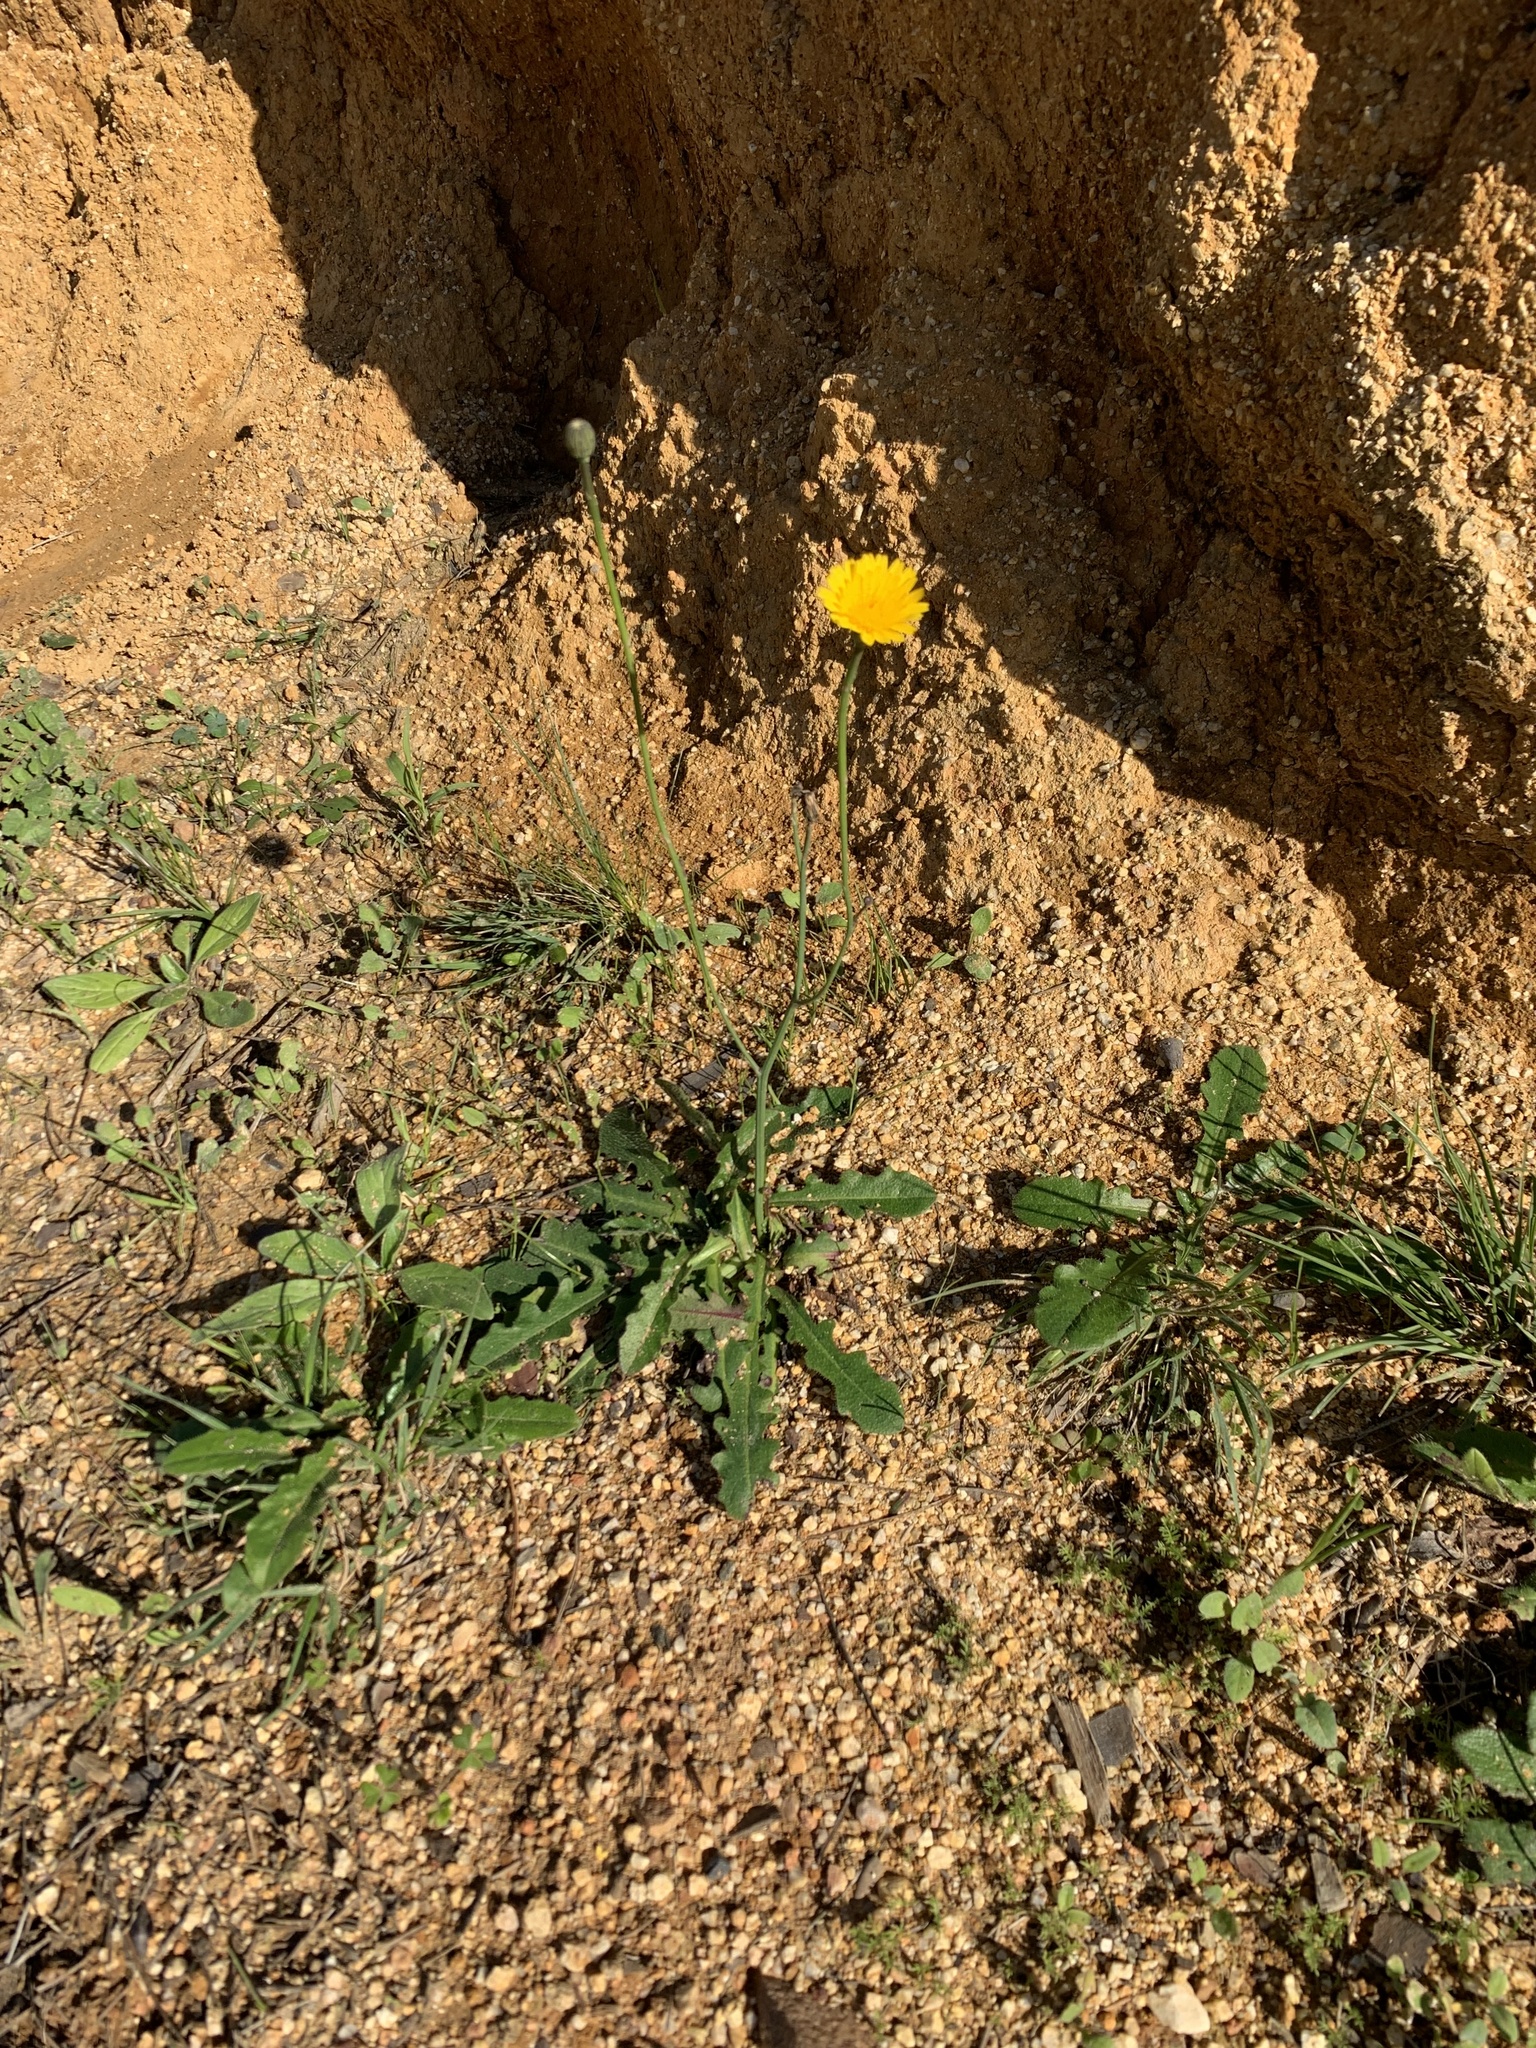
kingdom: Plantae
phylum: Tracheophyta
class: Magnoliopsida
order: Asterales
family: Asteraceae
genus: Hypochaeris
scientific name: Hypochaeris radicata
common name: Flatweed
